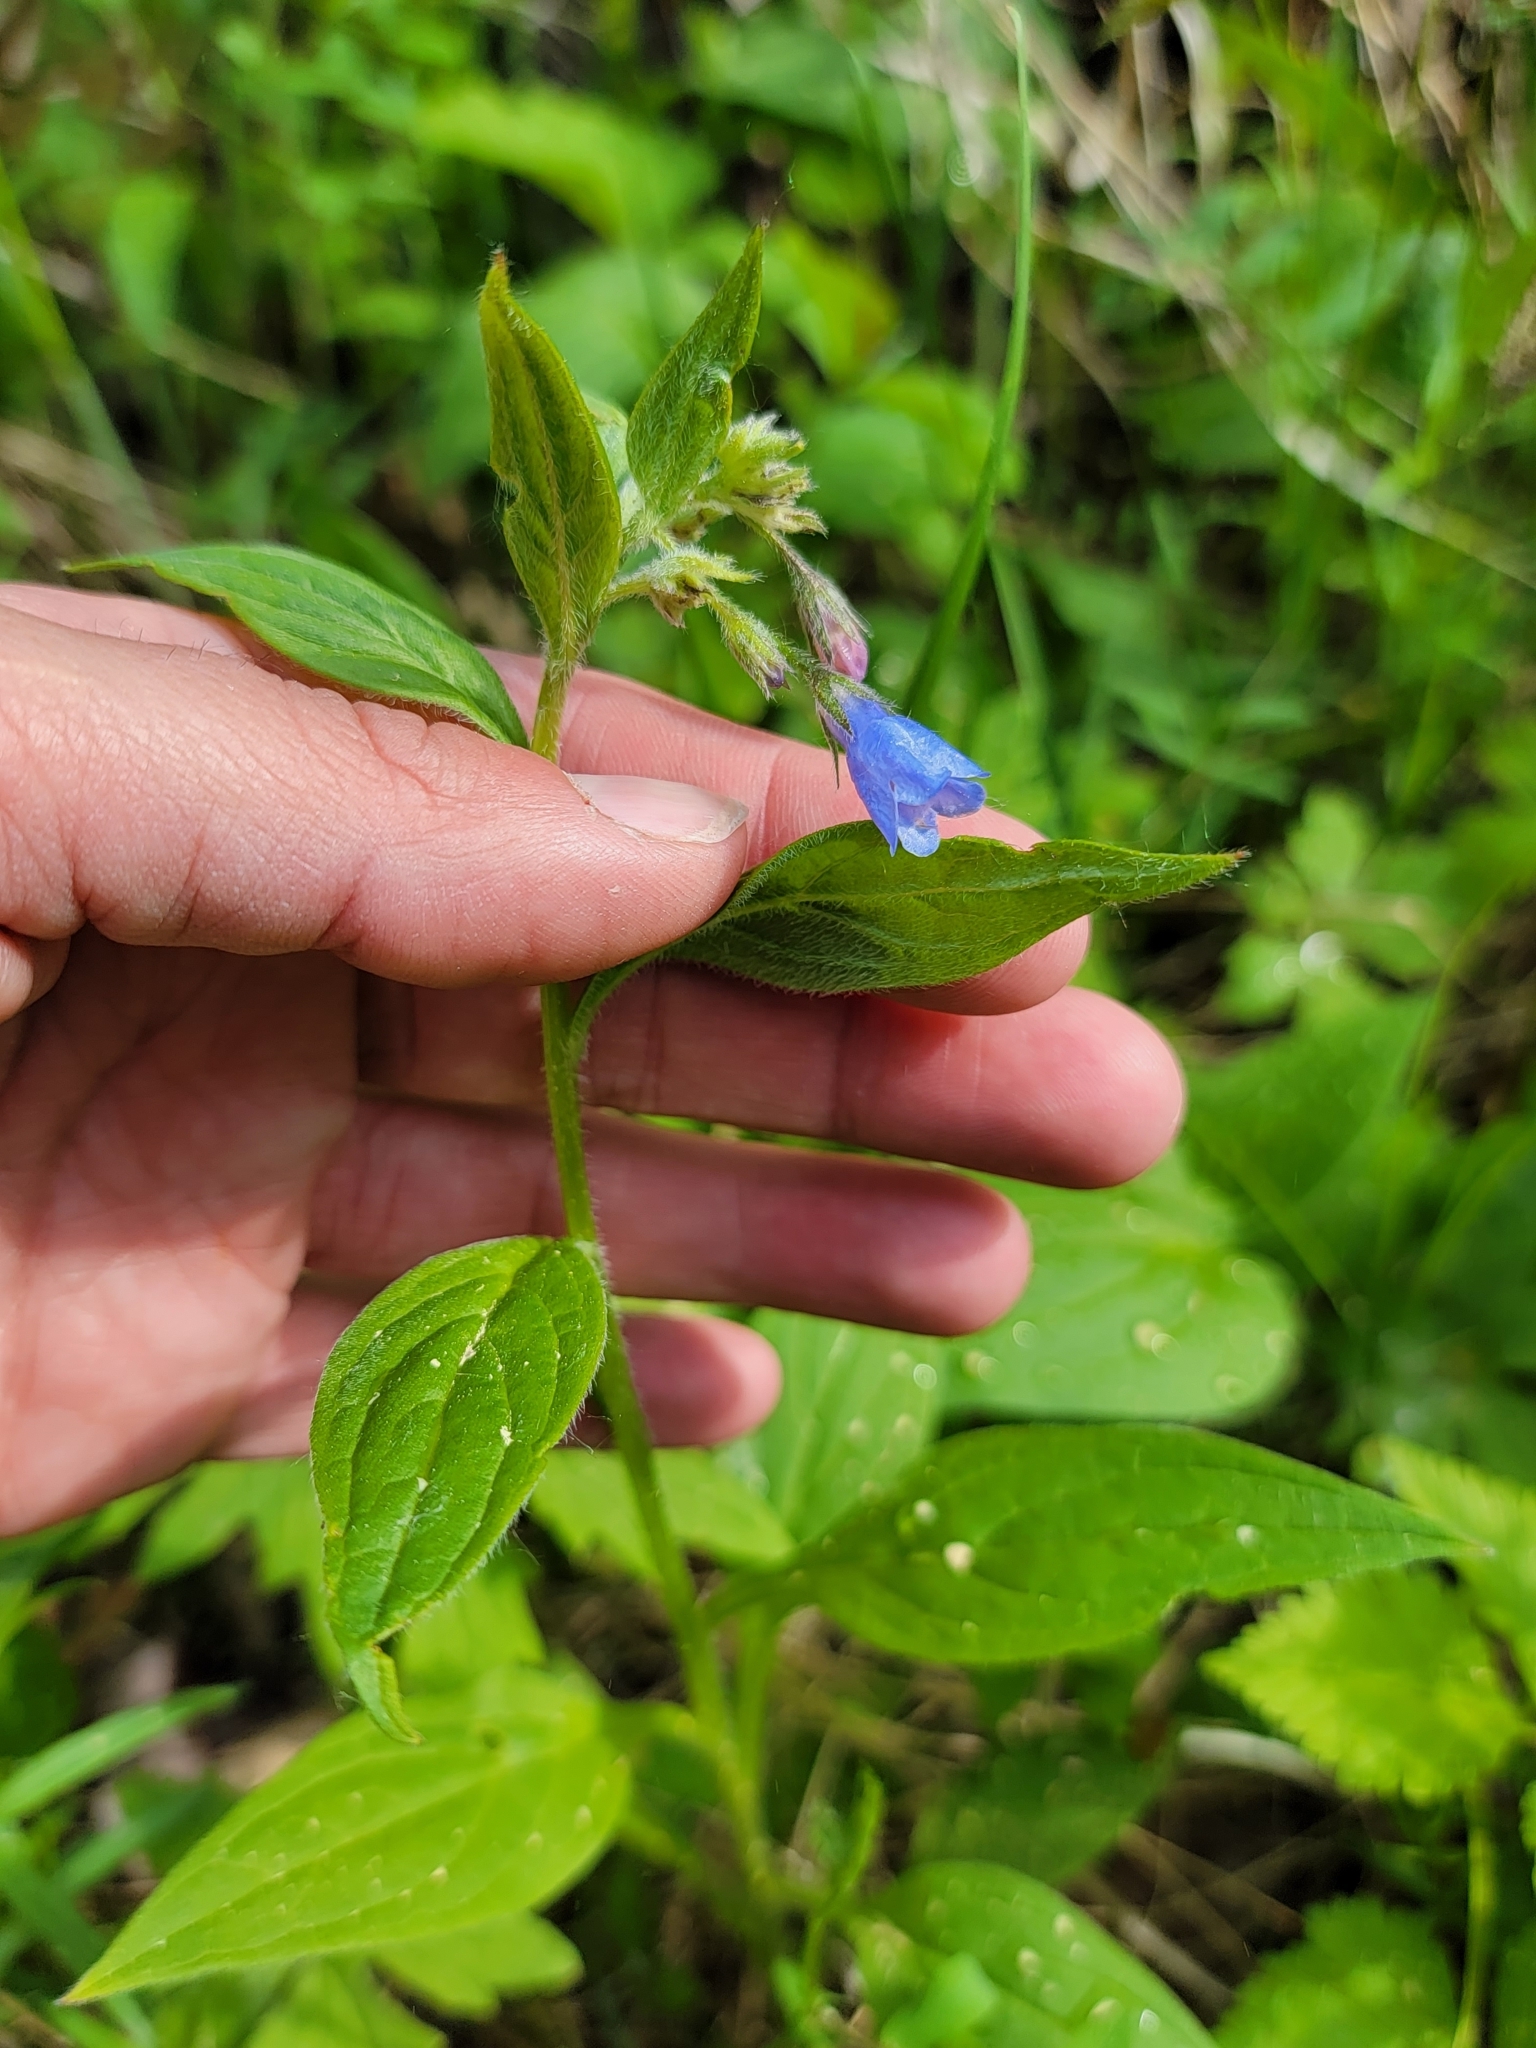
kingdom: Plantae
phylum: Tracheophyta
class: Magnoliopsida
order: Boraginales
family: Boraginaceae
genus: Mertensia
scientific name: Mertensia paniculata
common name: Panicled bluebells
